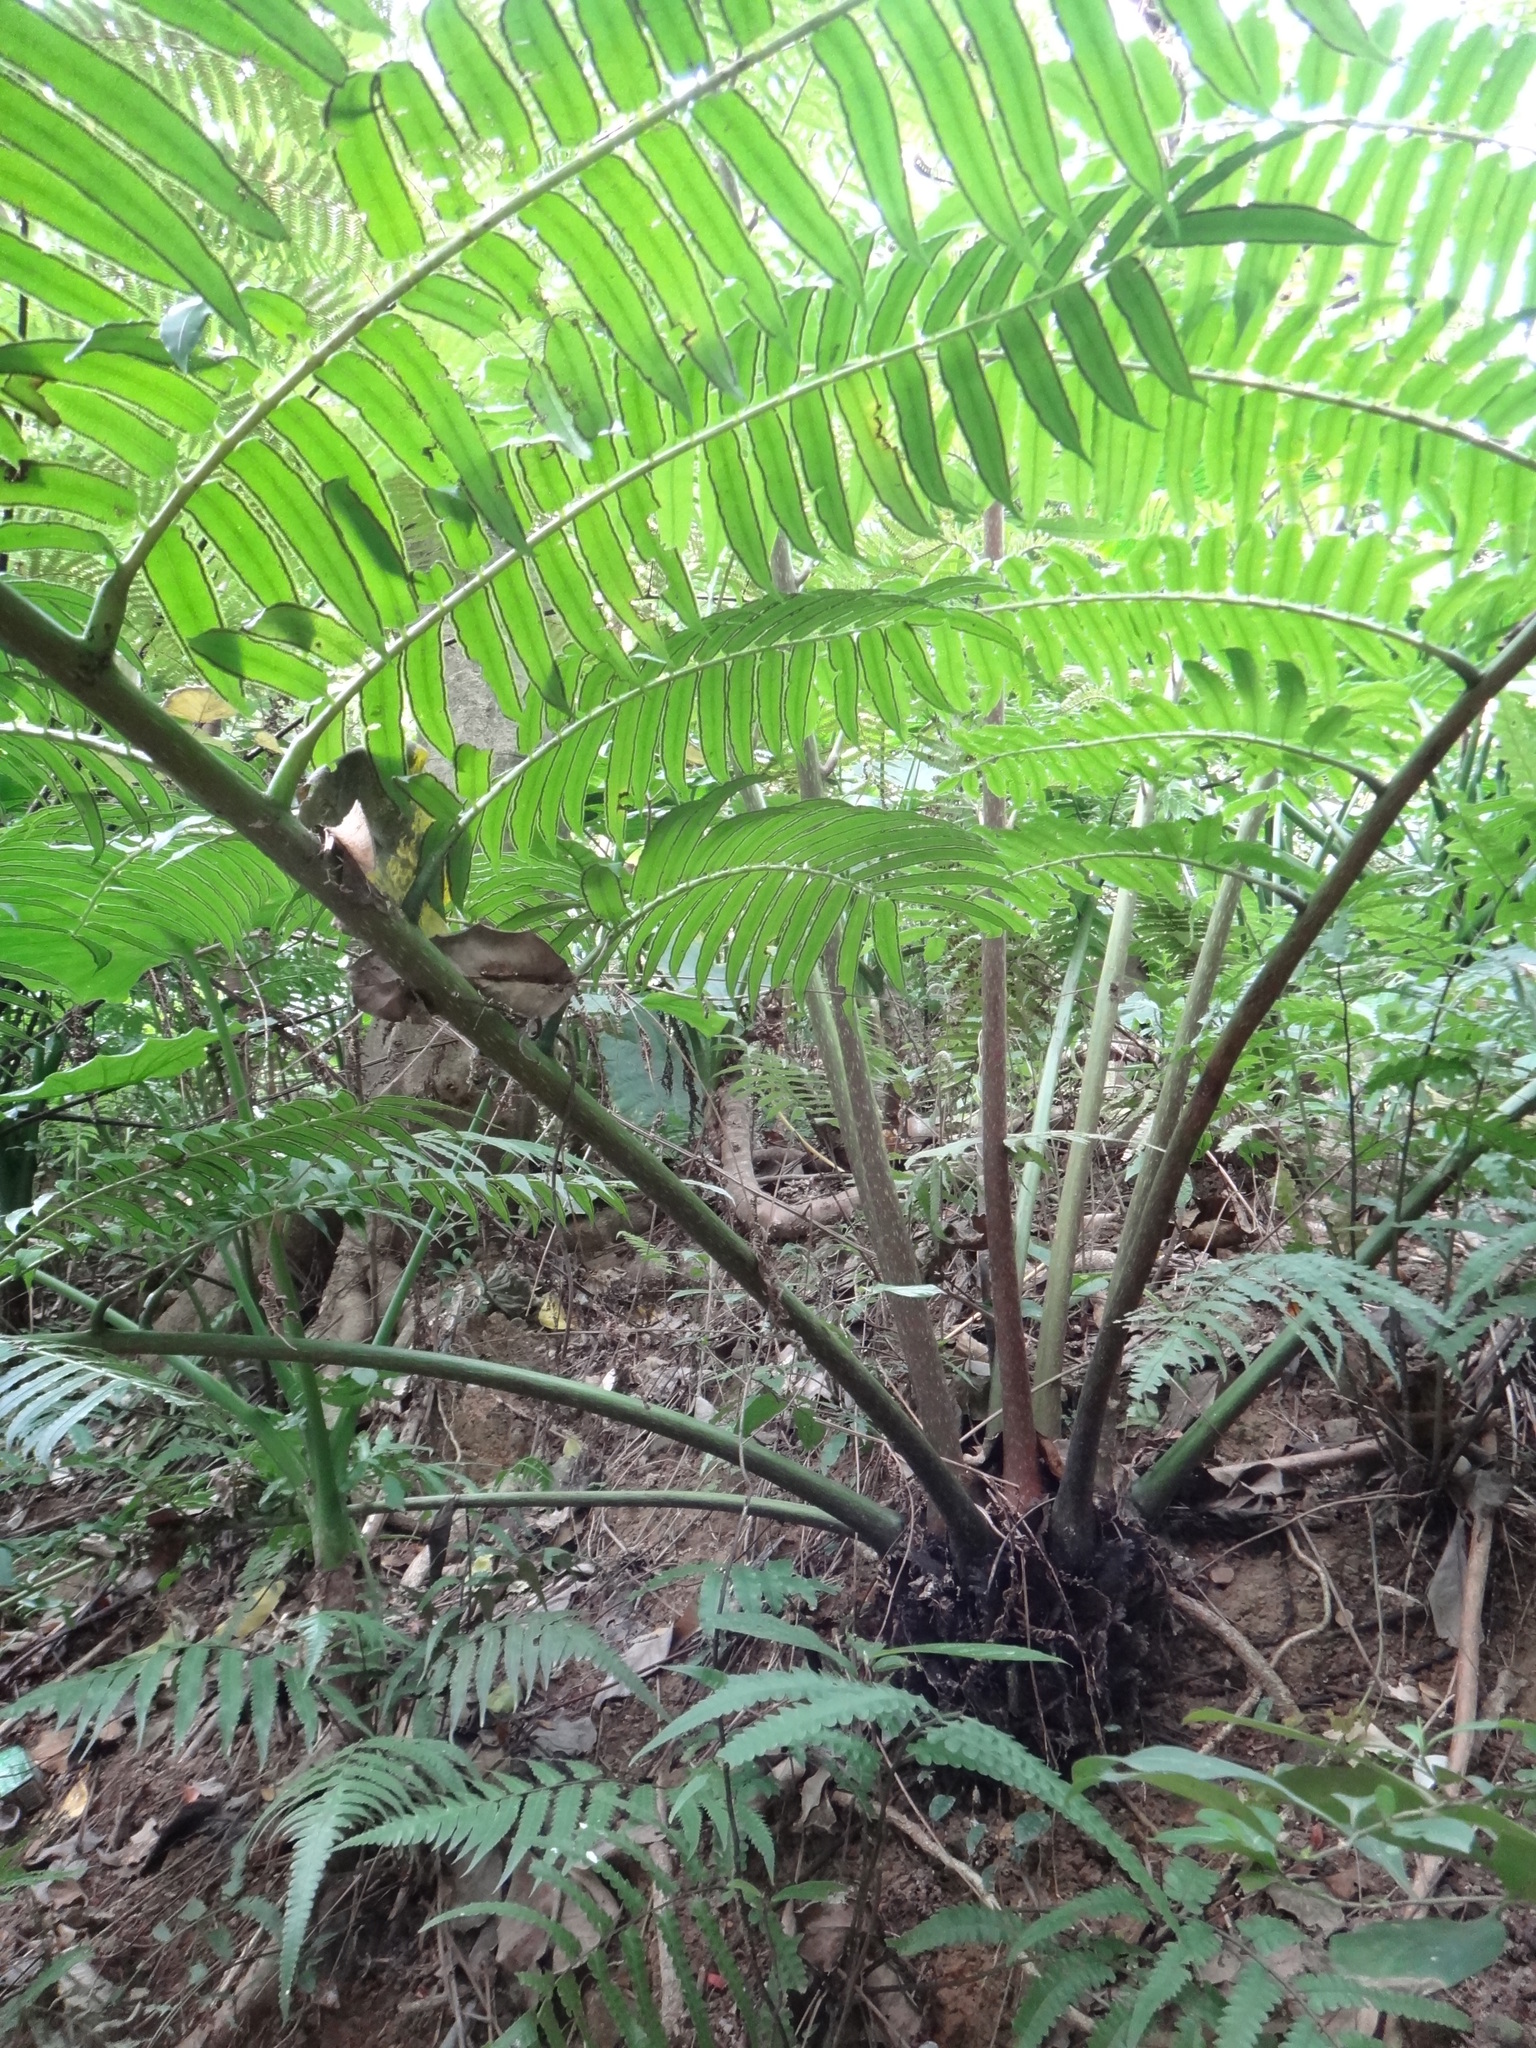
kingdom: Plantae
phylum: Tracheophyta
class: Polypodiopsida
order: Marattiales
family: Marattiaceae
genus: Angiopteris
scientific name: Angiopteris lygodiifolia
